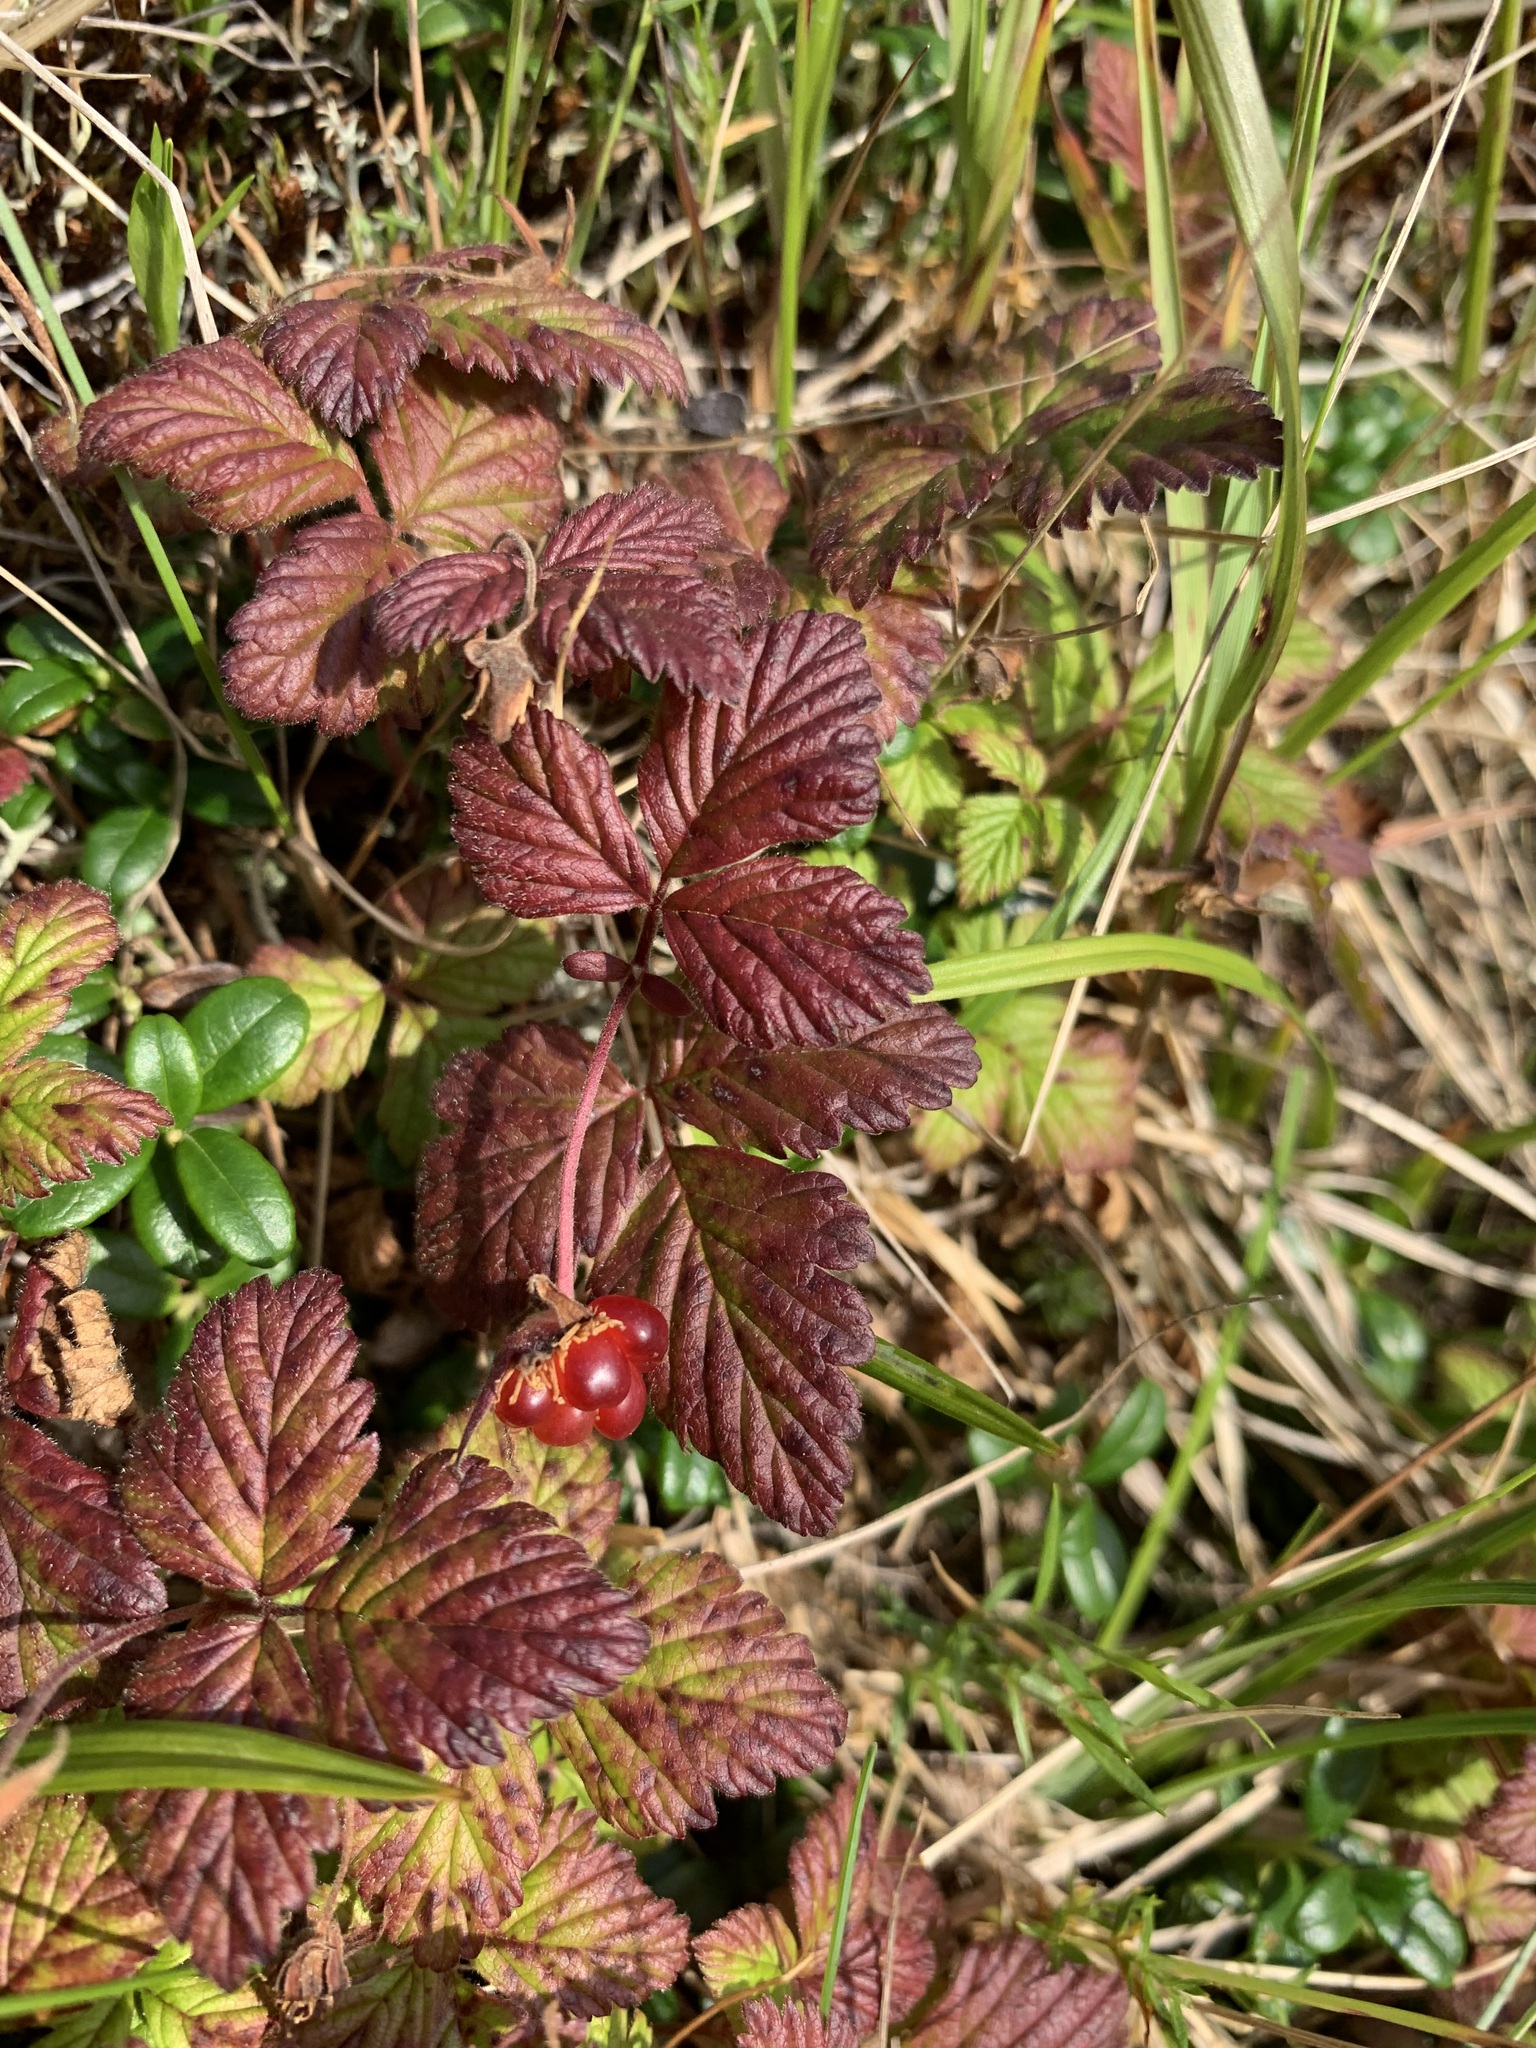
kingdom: Plantae
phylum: Tracheophyta
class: Magnoliopsida
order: Rosales
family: Rosaceae
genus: Rubus
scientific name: Rubus arcticus
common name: Arctic bramble
